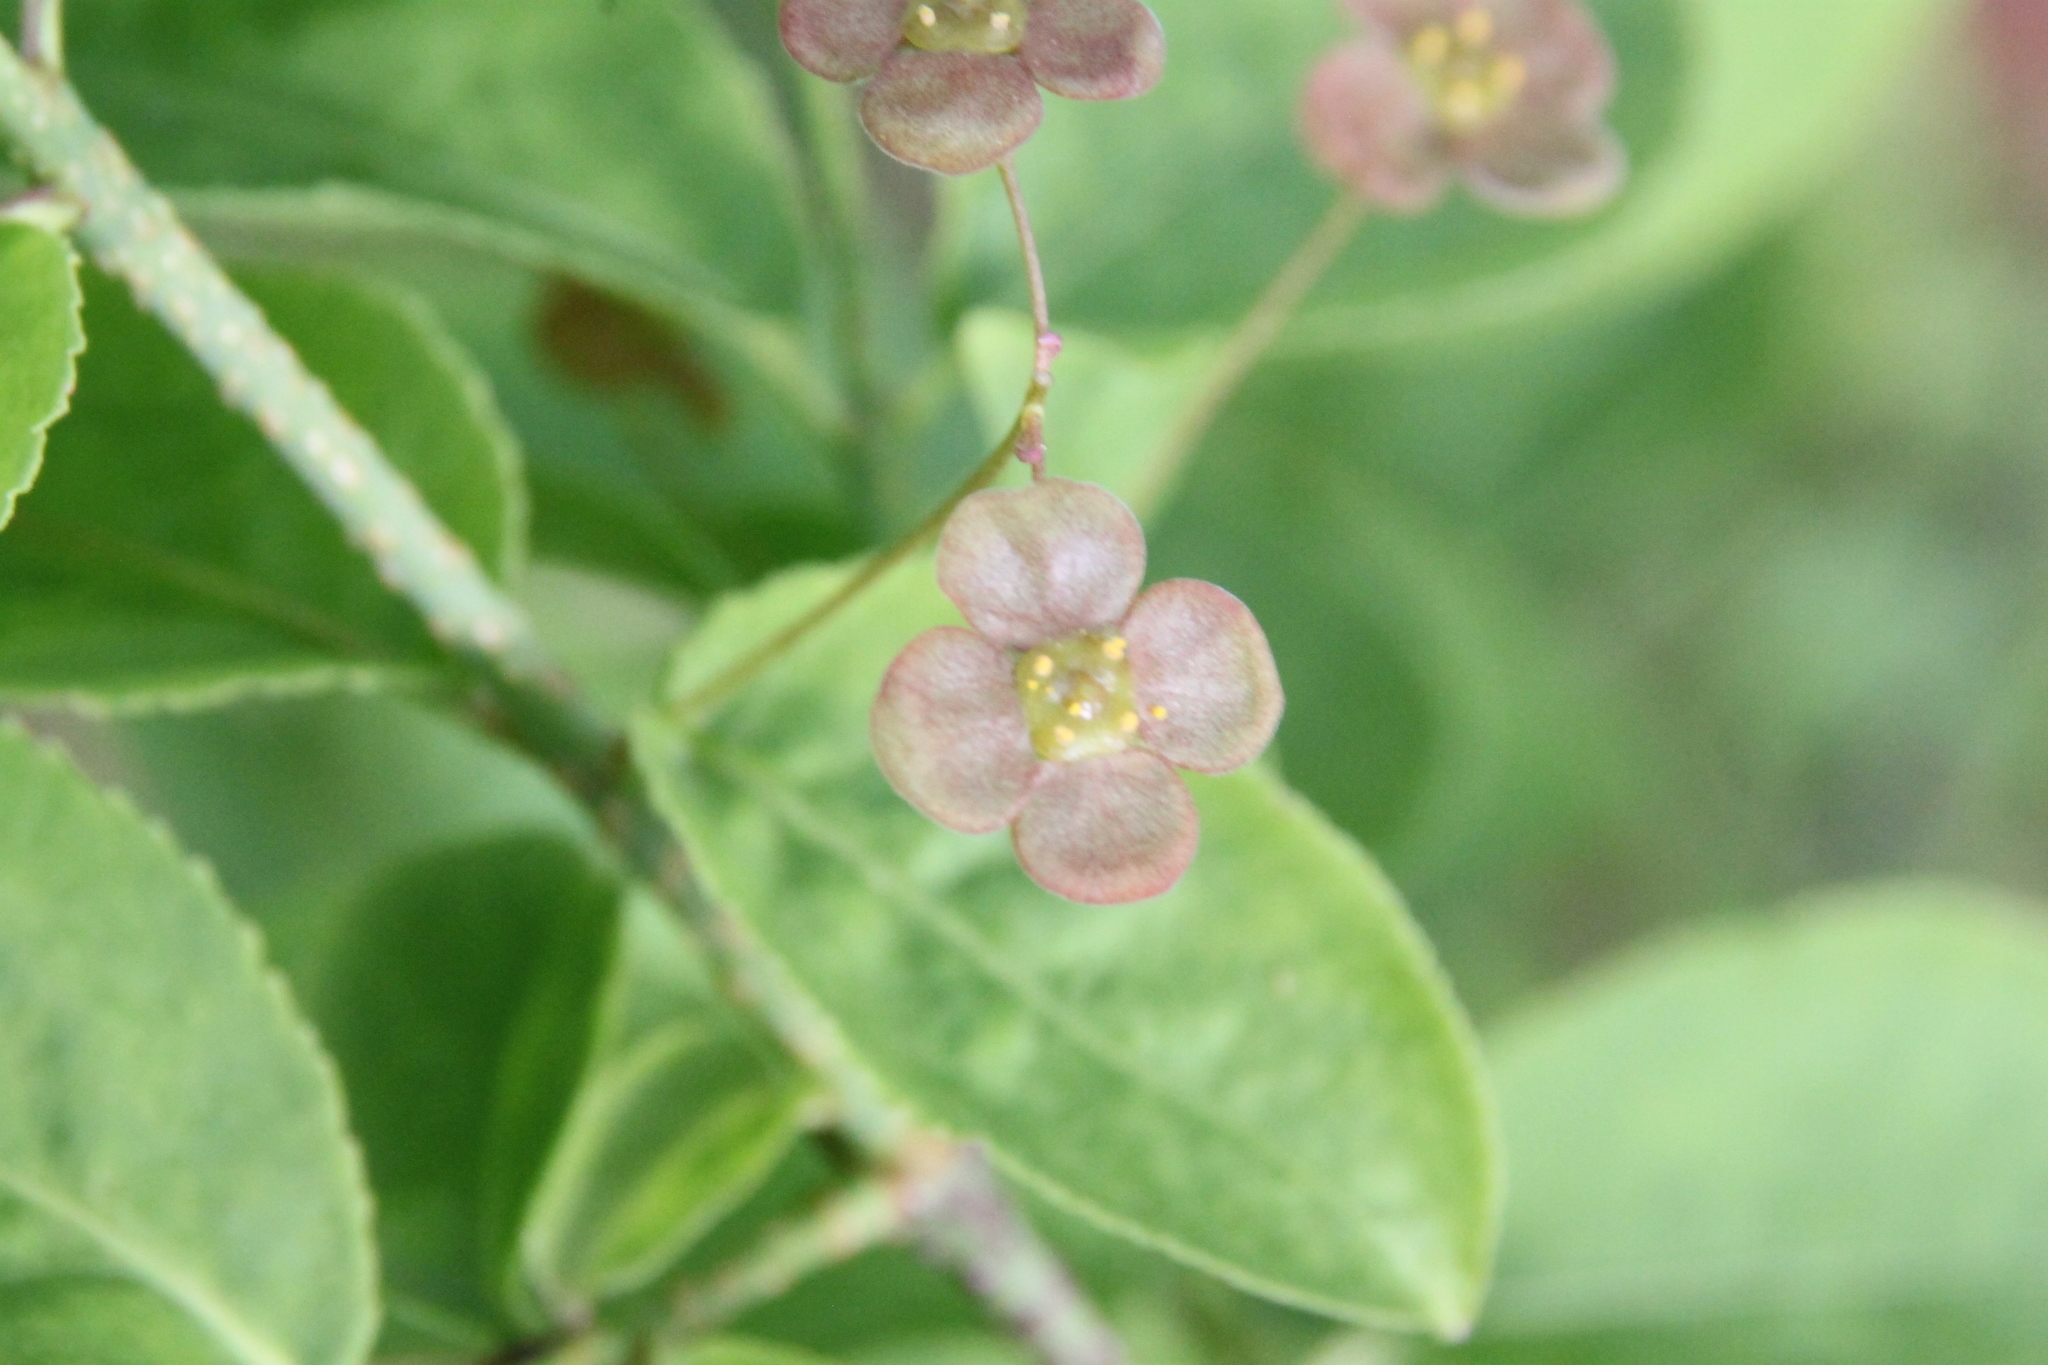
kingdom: Plantae
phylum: Tracheophyta
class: Magnoliopsida
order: Celastrales
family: Celastraceae
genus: Euonymus
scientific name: Euonymus verrucosus
